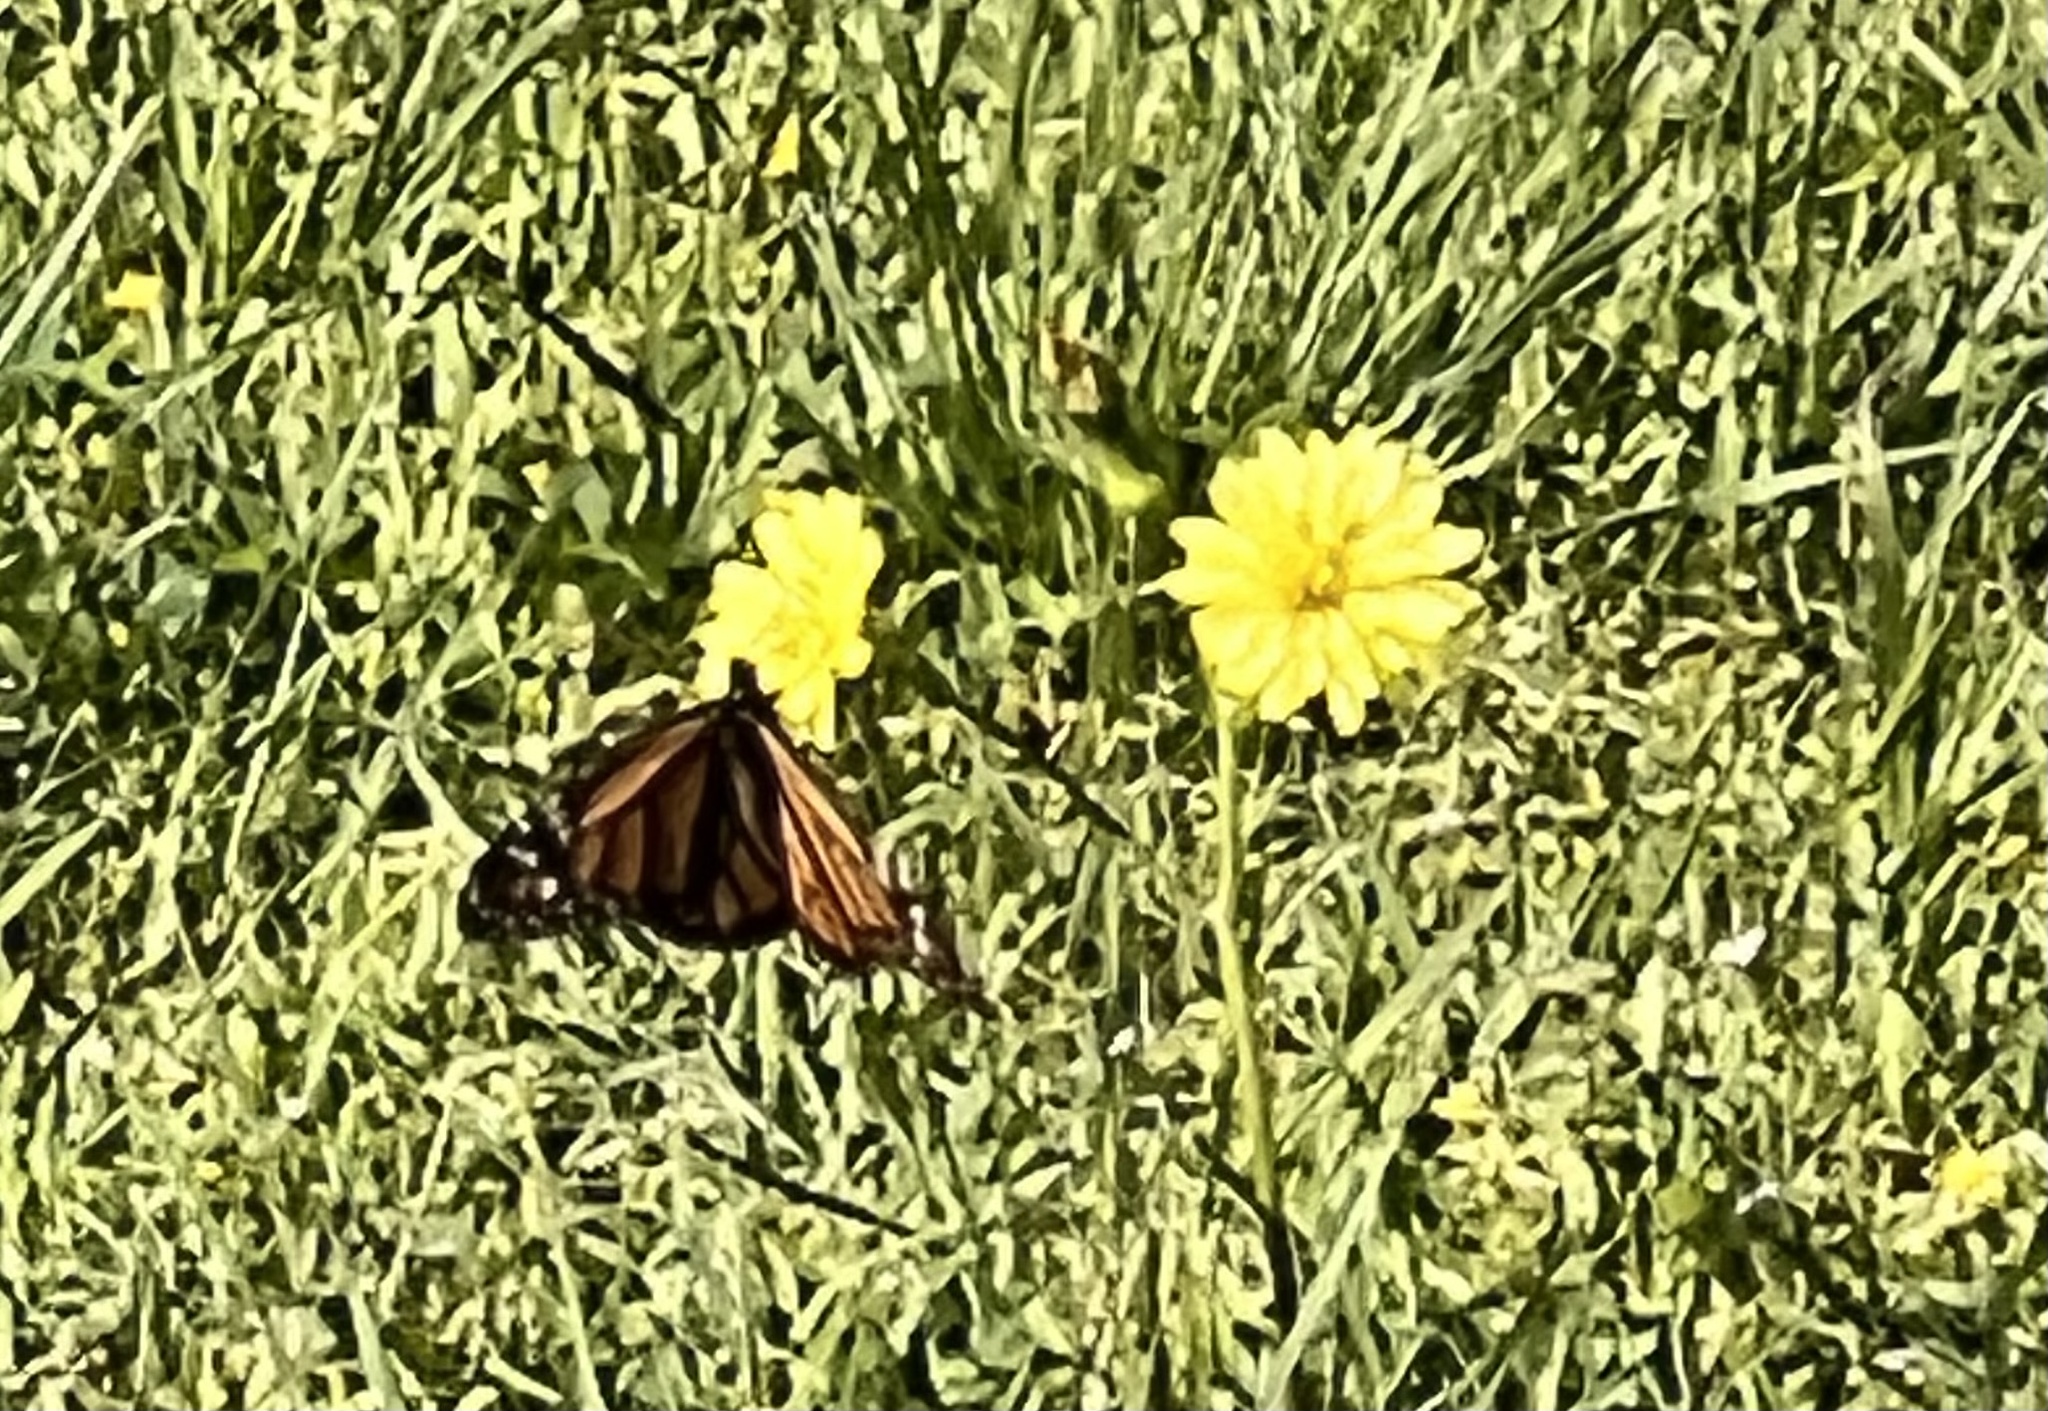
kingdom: Animalia
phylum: Arthropoda
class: Insecta
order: Lepidoptera
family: Nymphalidae
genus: Danaus
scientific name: Danaus plexippus
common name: Monarch
